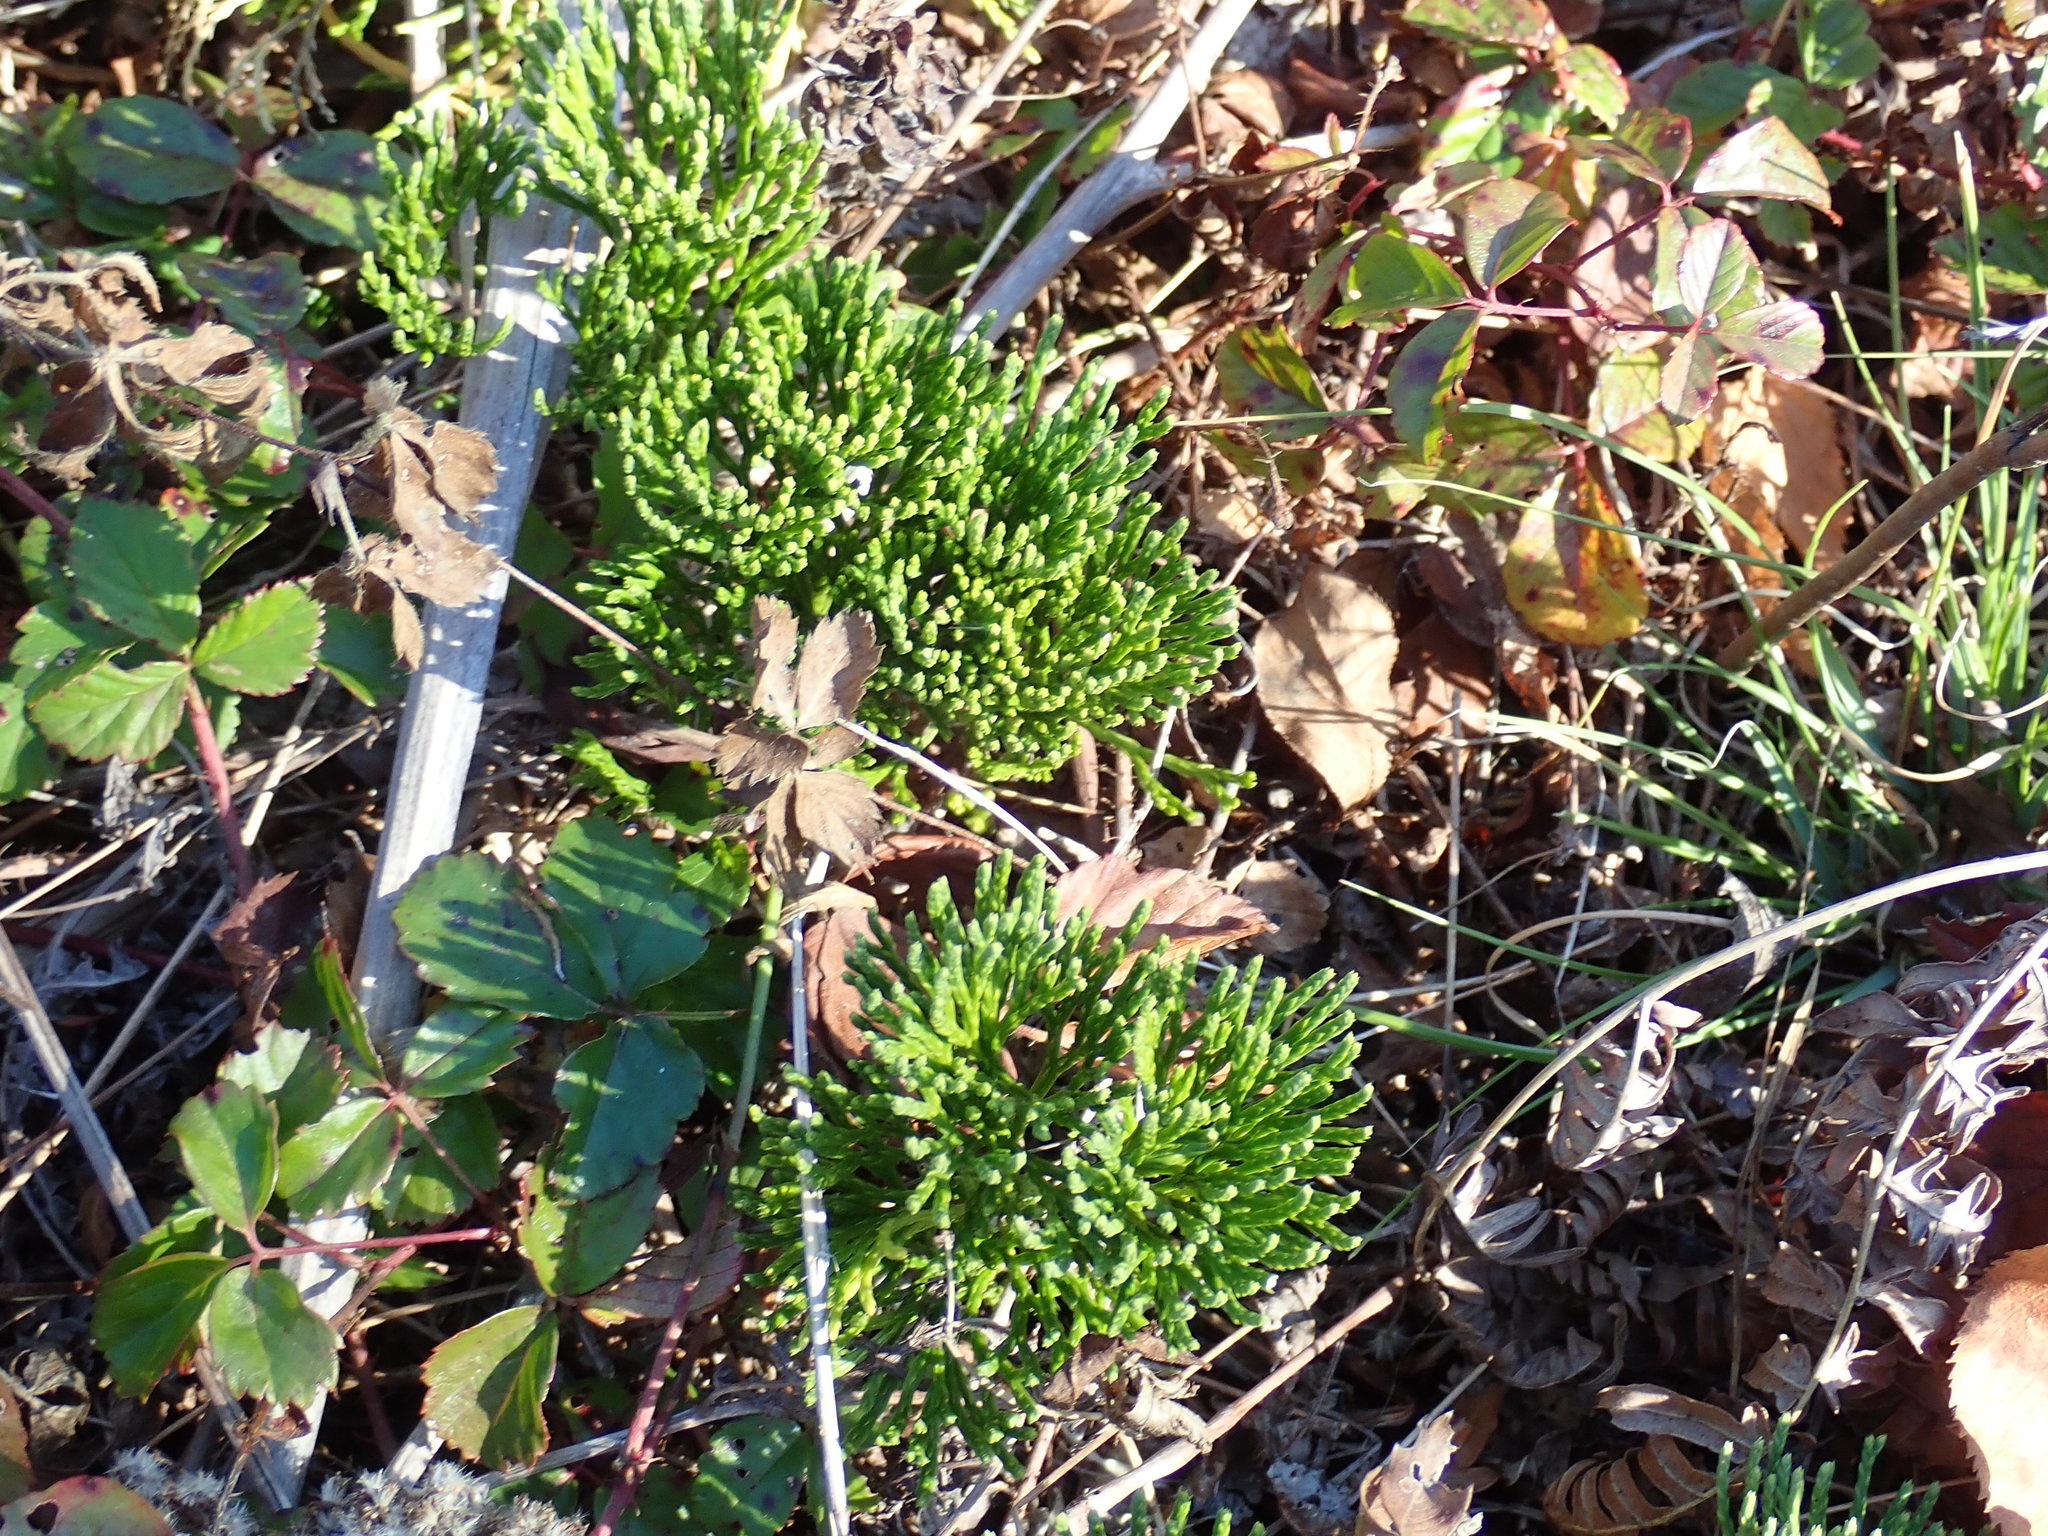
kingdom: Plantae
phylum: Tracheophyta
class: Lycopodiopsida
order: Lycopodiales
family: Lycopodiaceae
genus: Diphasiastrum
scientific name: Diphasiastrum tristachyum
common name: Blue ground-cedar
